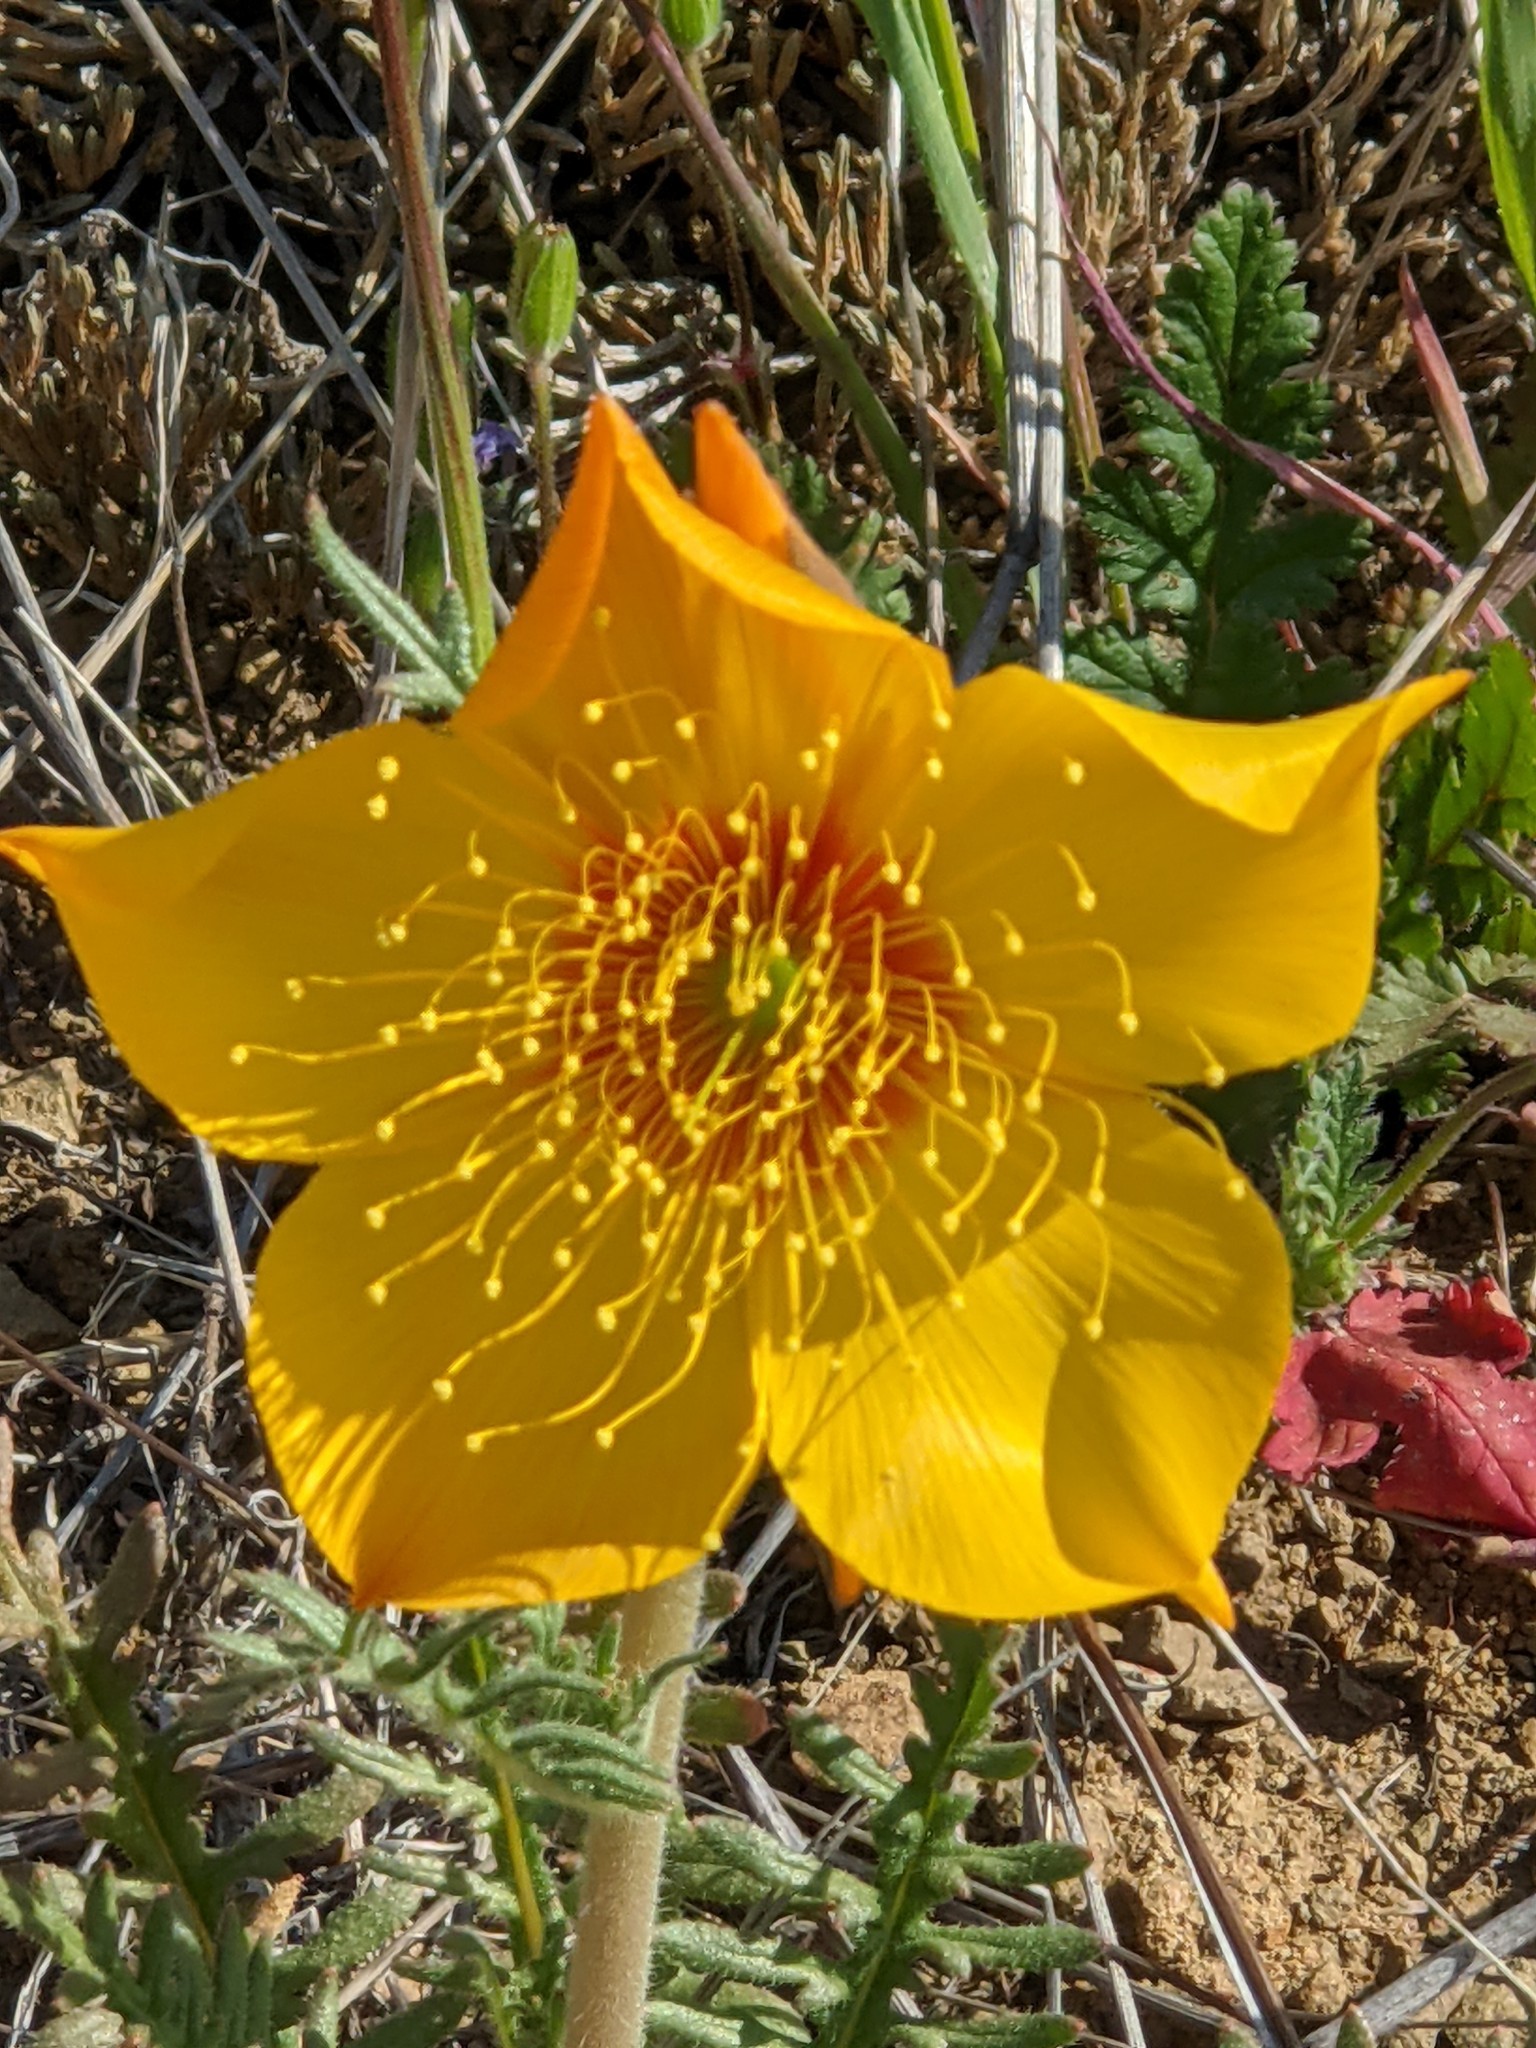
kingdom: Plantae
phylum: Tracheophyta
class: Magnoliopsida
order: Cornales
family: Loasaceae
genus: Mentzelia
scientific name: Mentzelia lindleyi
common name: Golden bartonia
